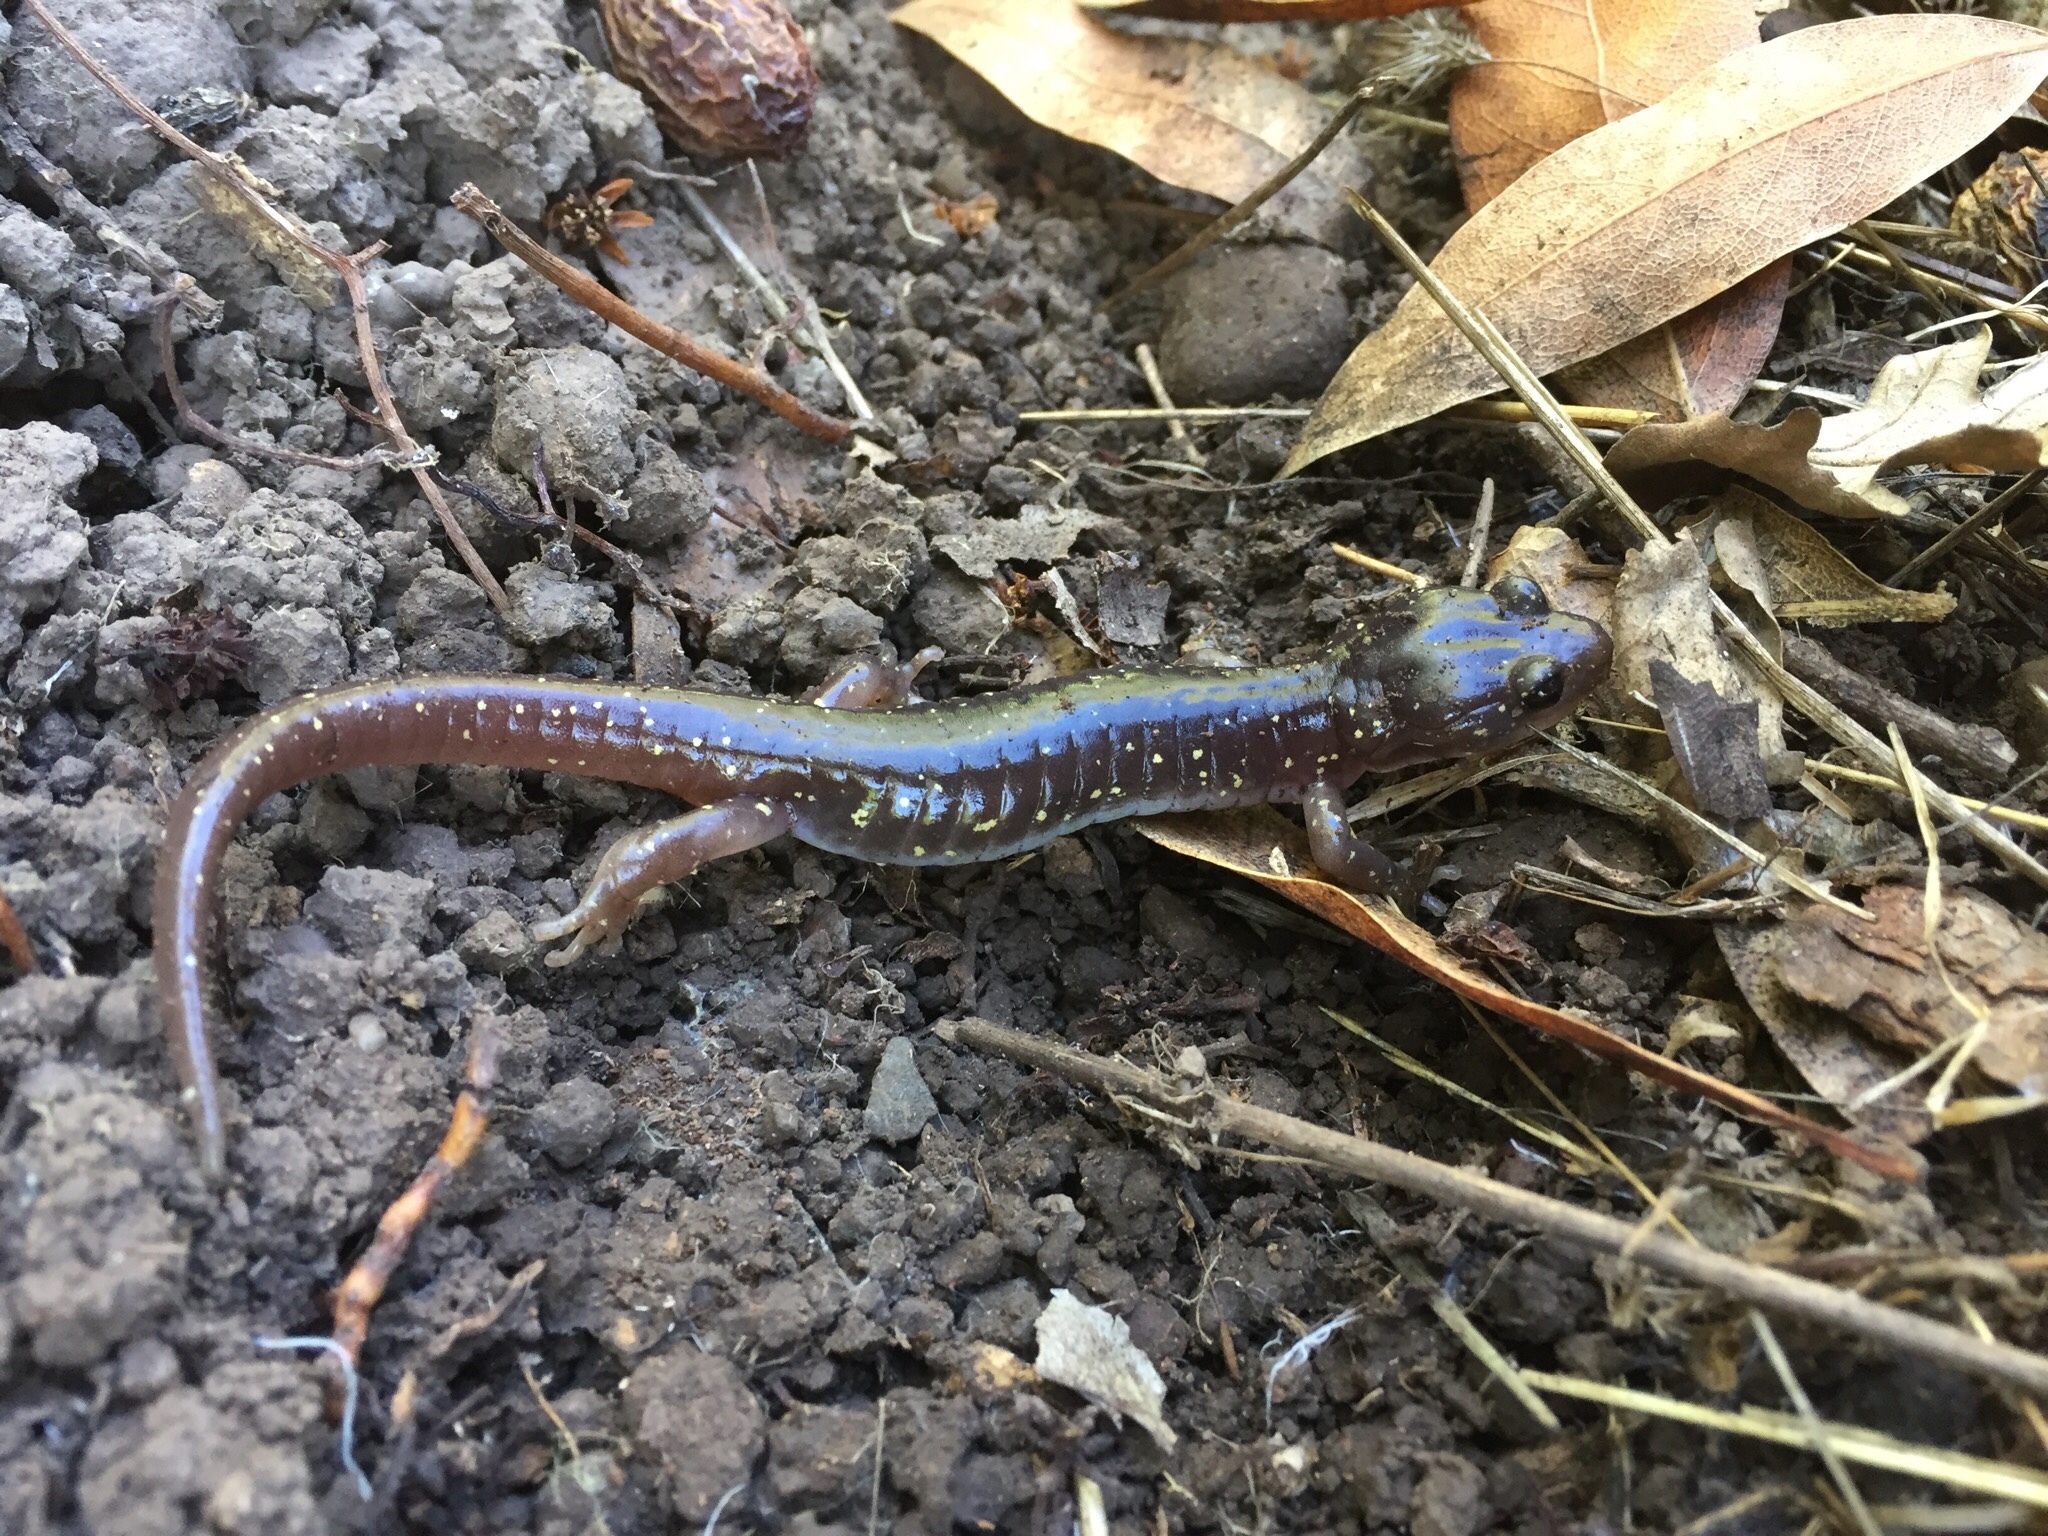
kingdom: Animalia
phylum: Chordata
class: Amphibia
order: Caudata
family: Plethodontidae
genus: Aneides
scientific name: Aneides lugubris
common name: Arboreal salamander
